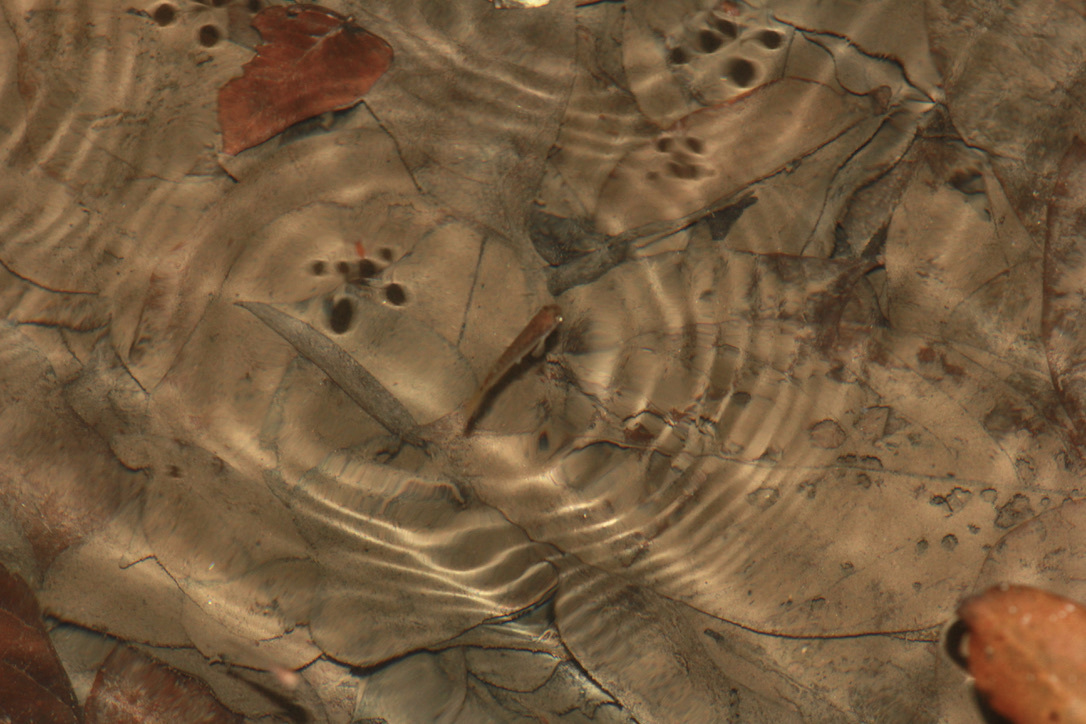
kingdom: Animalia
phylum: Chordata
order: Cyprinodontiformes
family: Rivulidae
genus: Anablepsoides
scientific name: Anablepsoides hartii
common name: Giant rivulus
